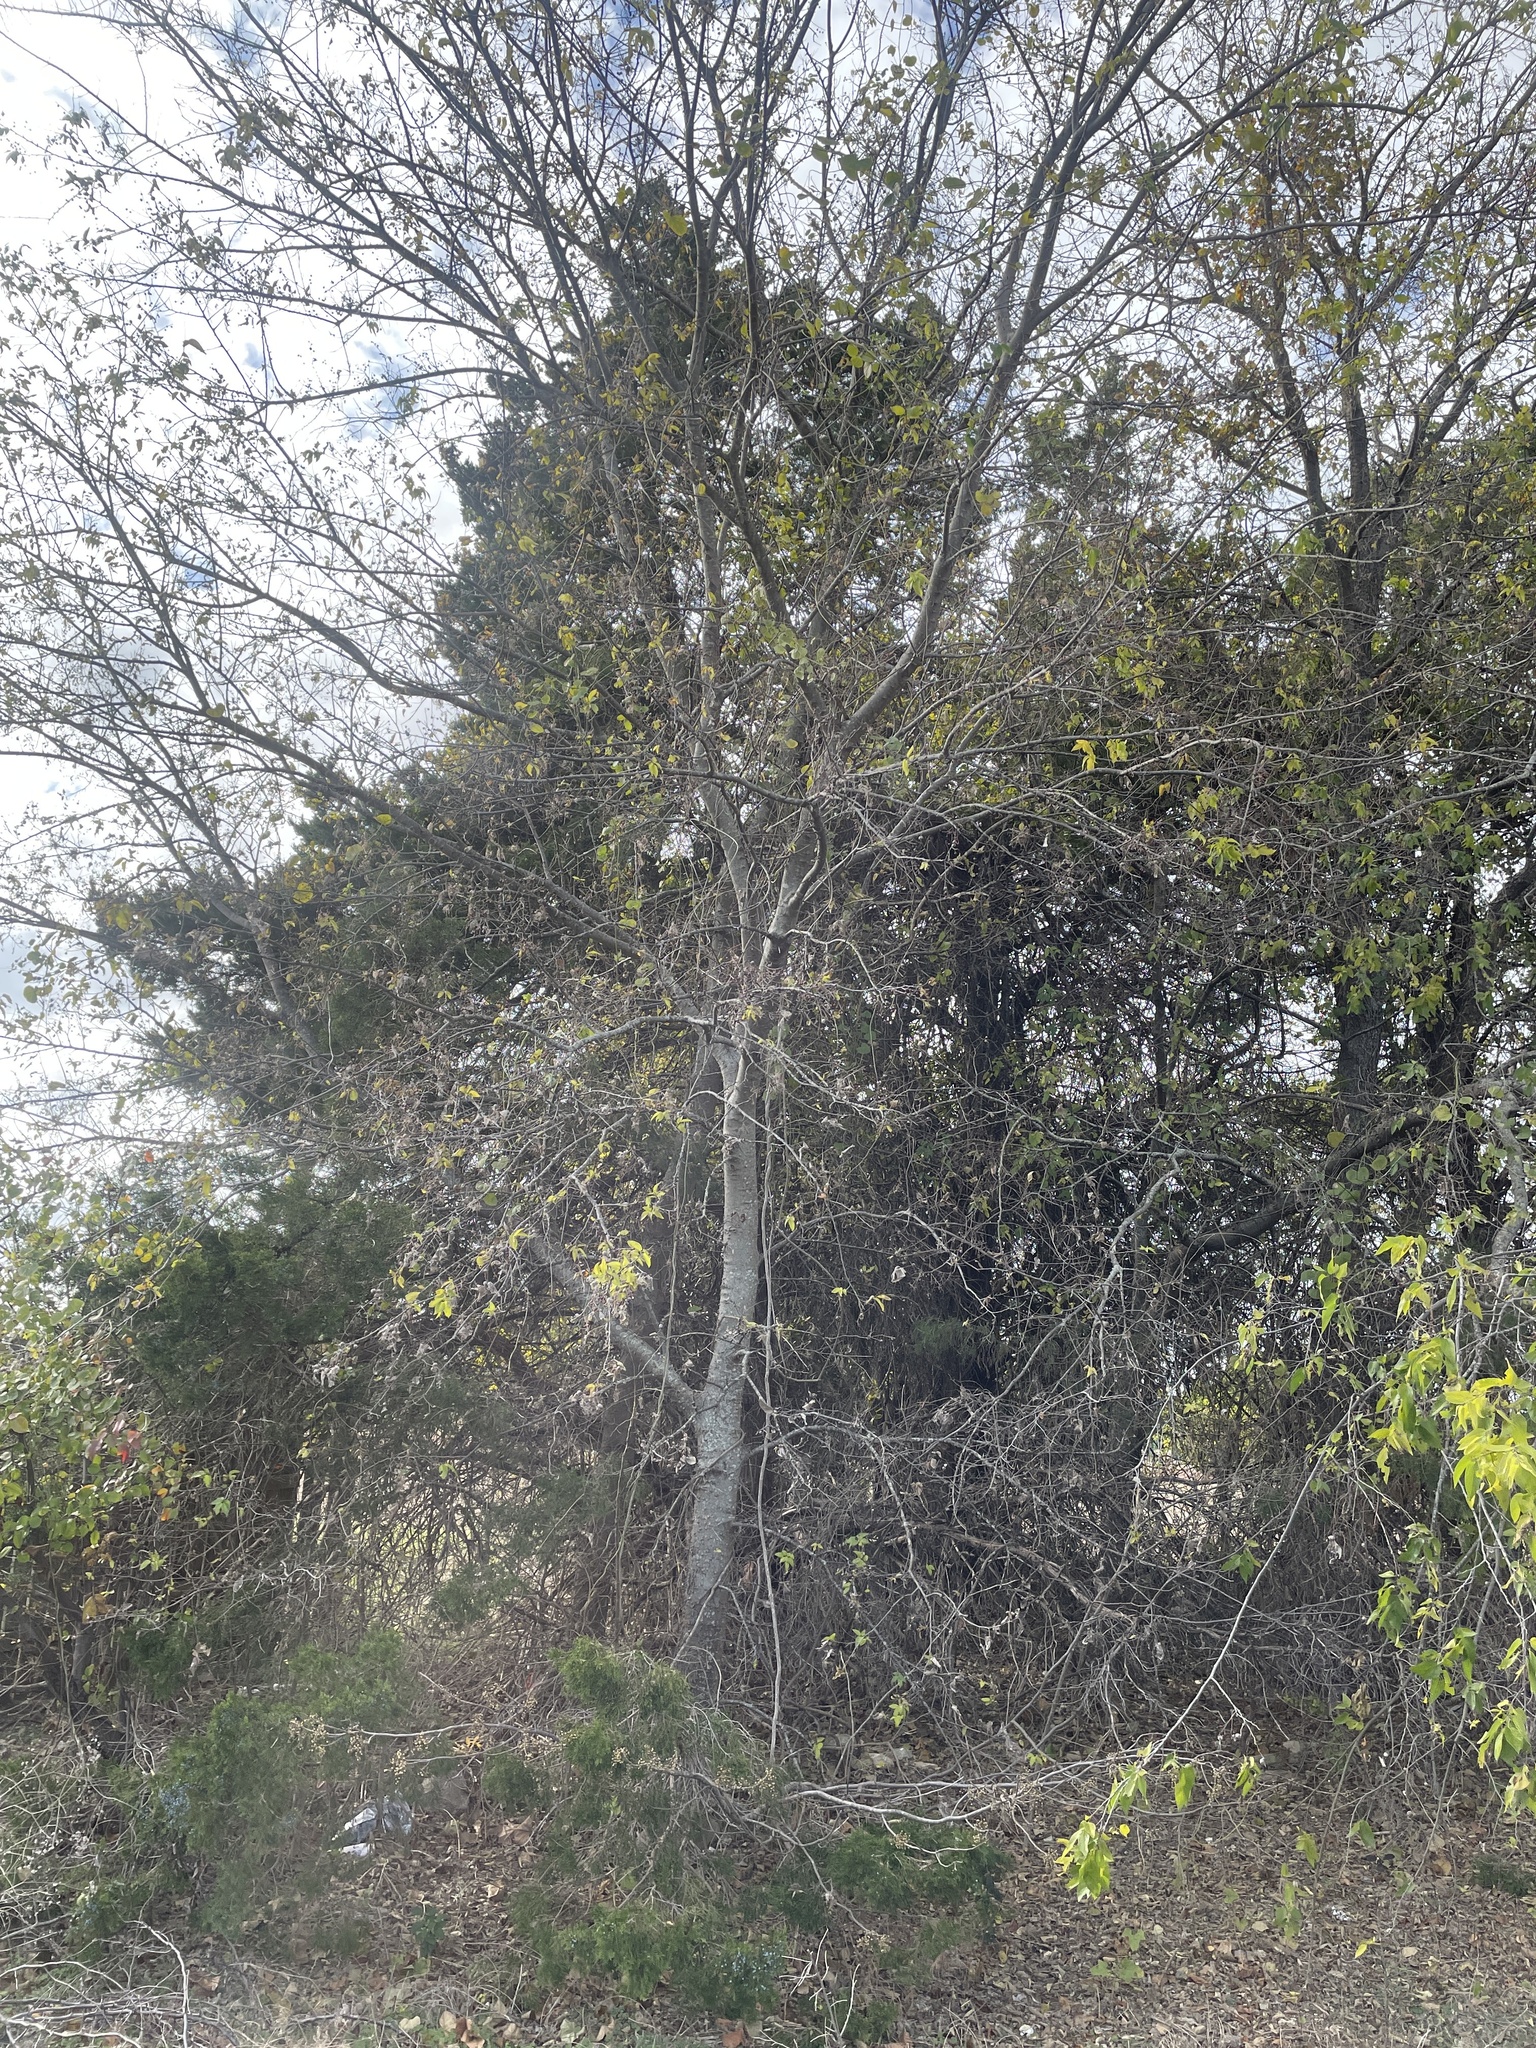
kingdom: Plantae
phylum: Tracheophyta
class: Magnoliopsida
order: Rosales
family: Cannabaceae
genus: Celtis
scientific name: Celtis laevigata
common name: Sugarberry
